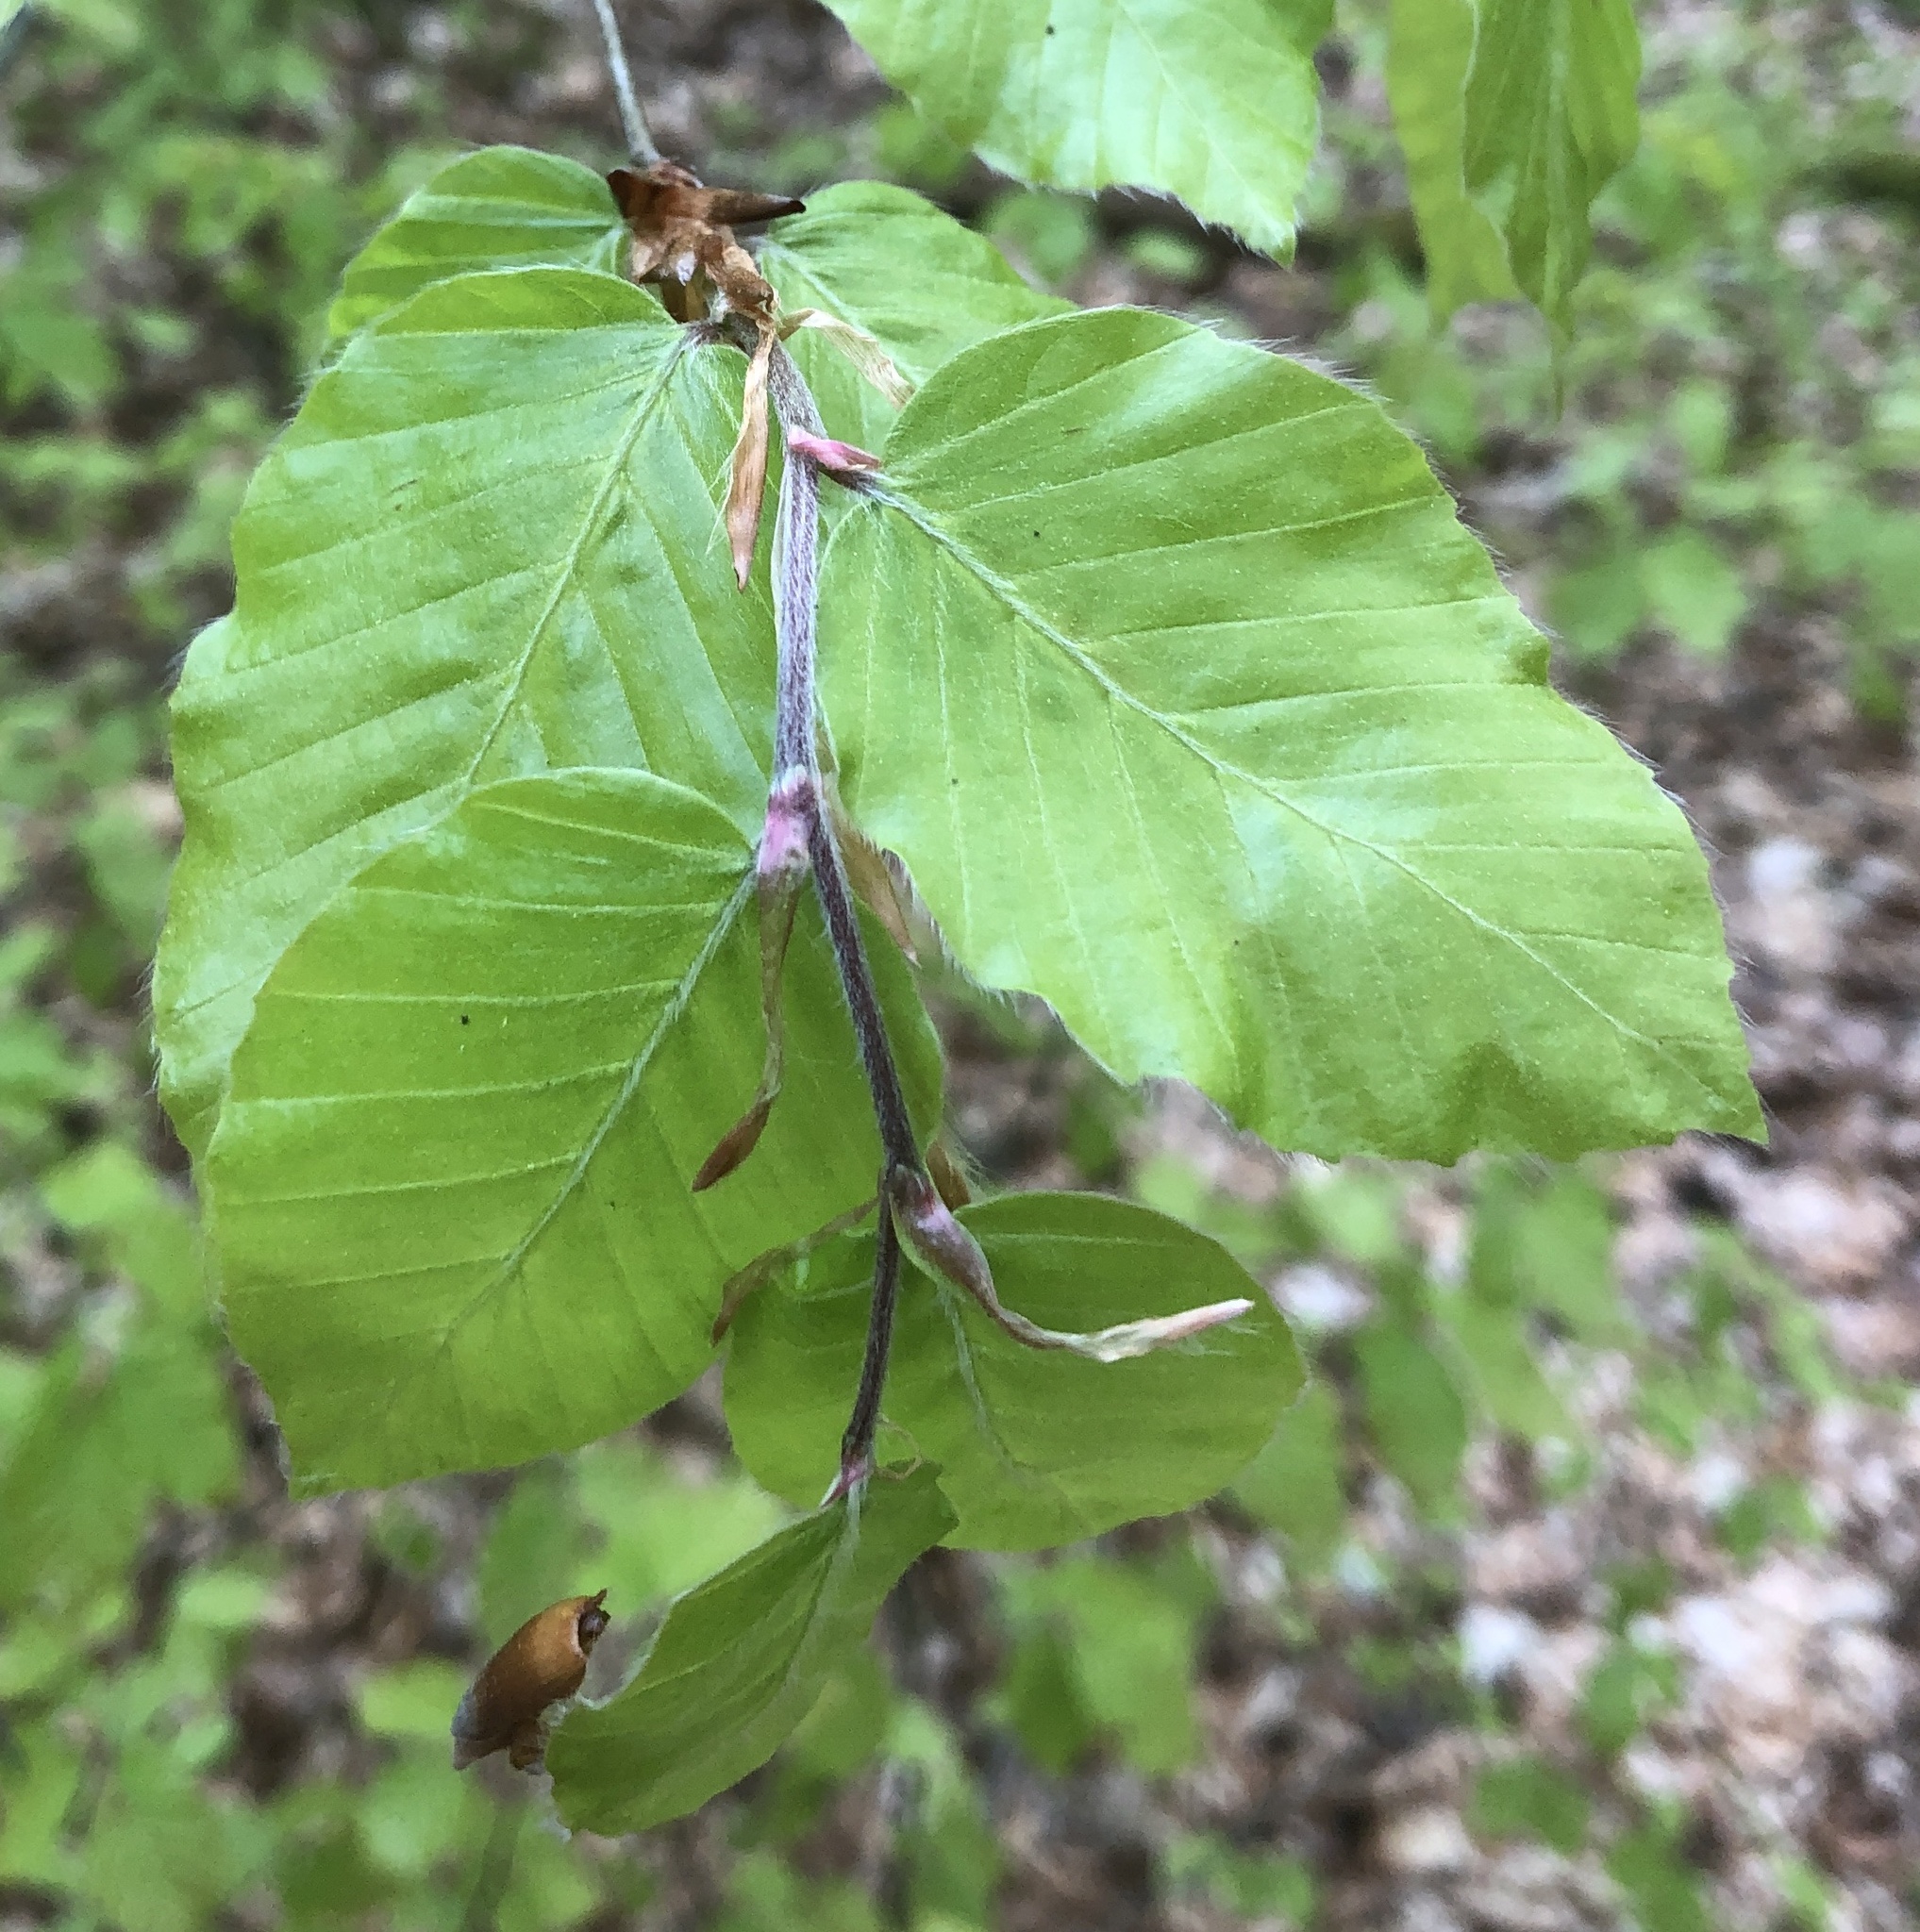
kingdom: Plantae
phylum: Tracheophyta
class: Magnoliopsida
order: Fagales
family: Fagaceae
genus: Fagus
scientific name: Fagus sylvatica
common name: Beech
